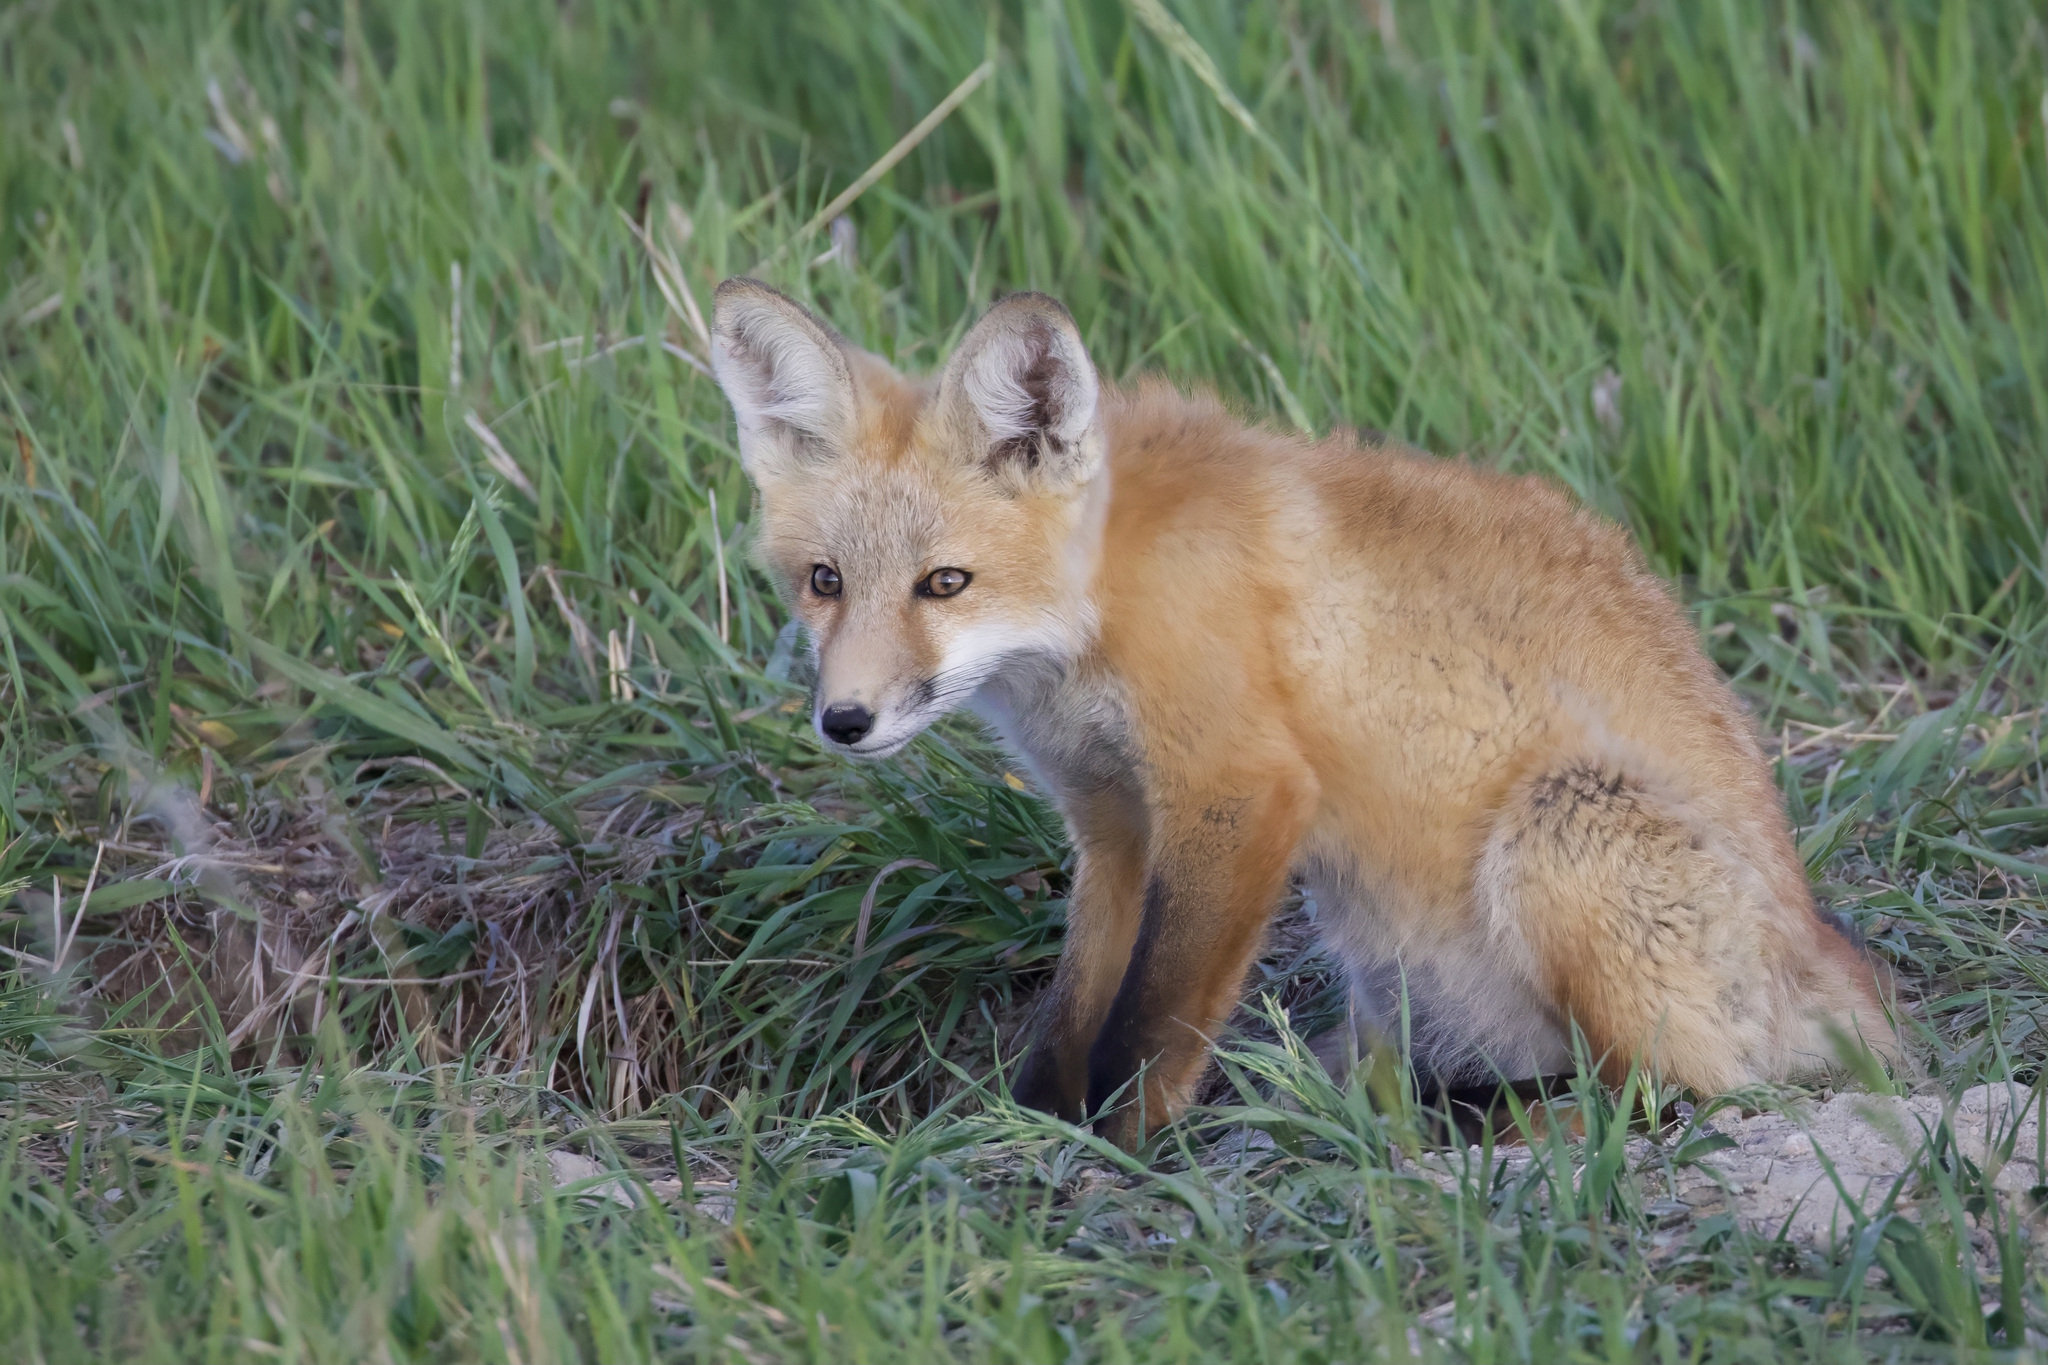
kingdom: Animalia
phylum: Chordata
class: Mammalia
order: Carnivora
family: Canidae
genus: Vulpes
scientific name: Vulpes vulpes
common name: Red fox
